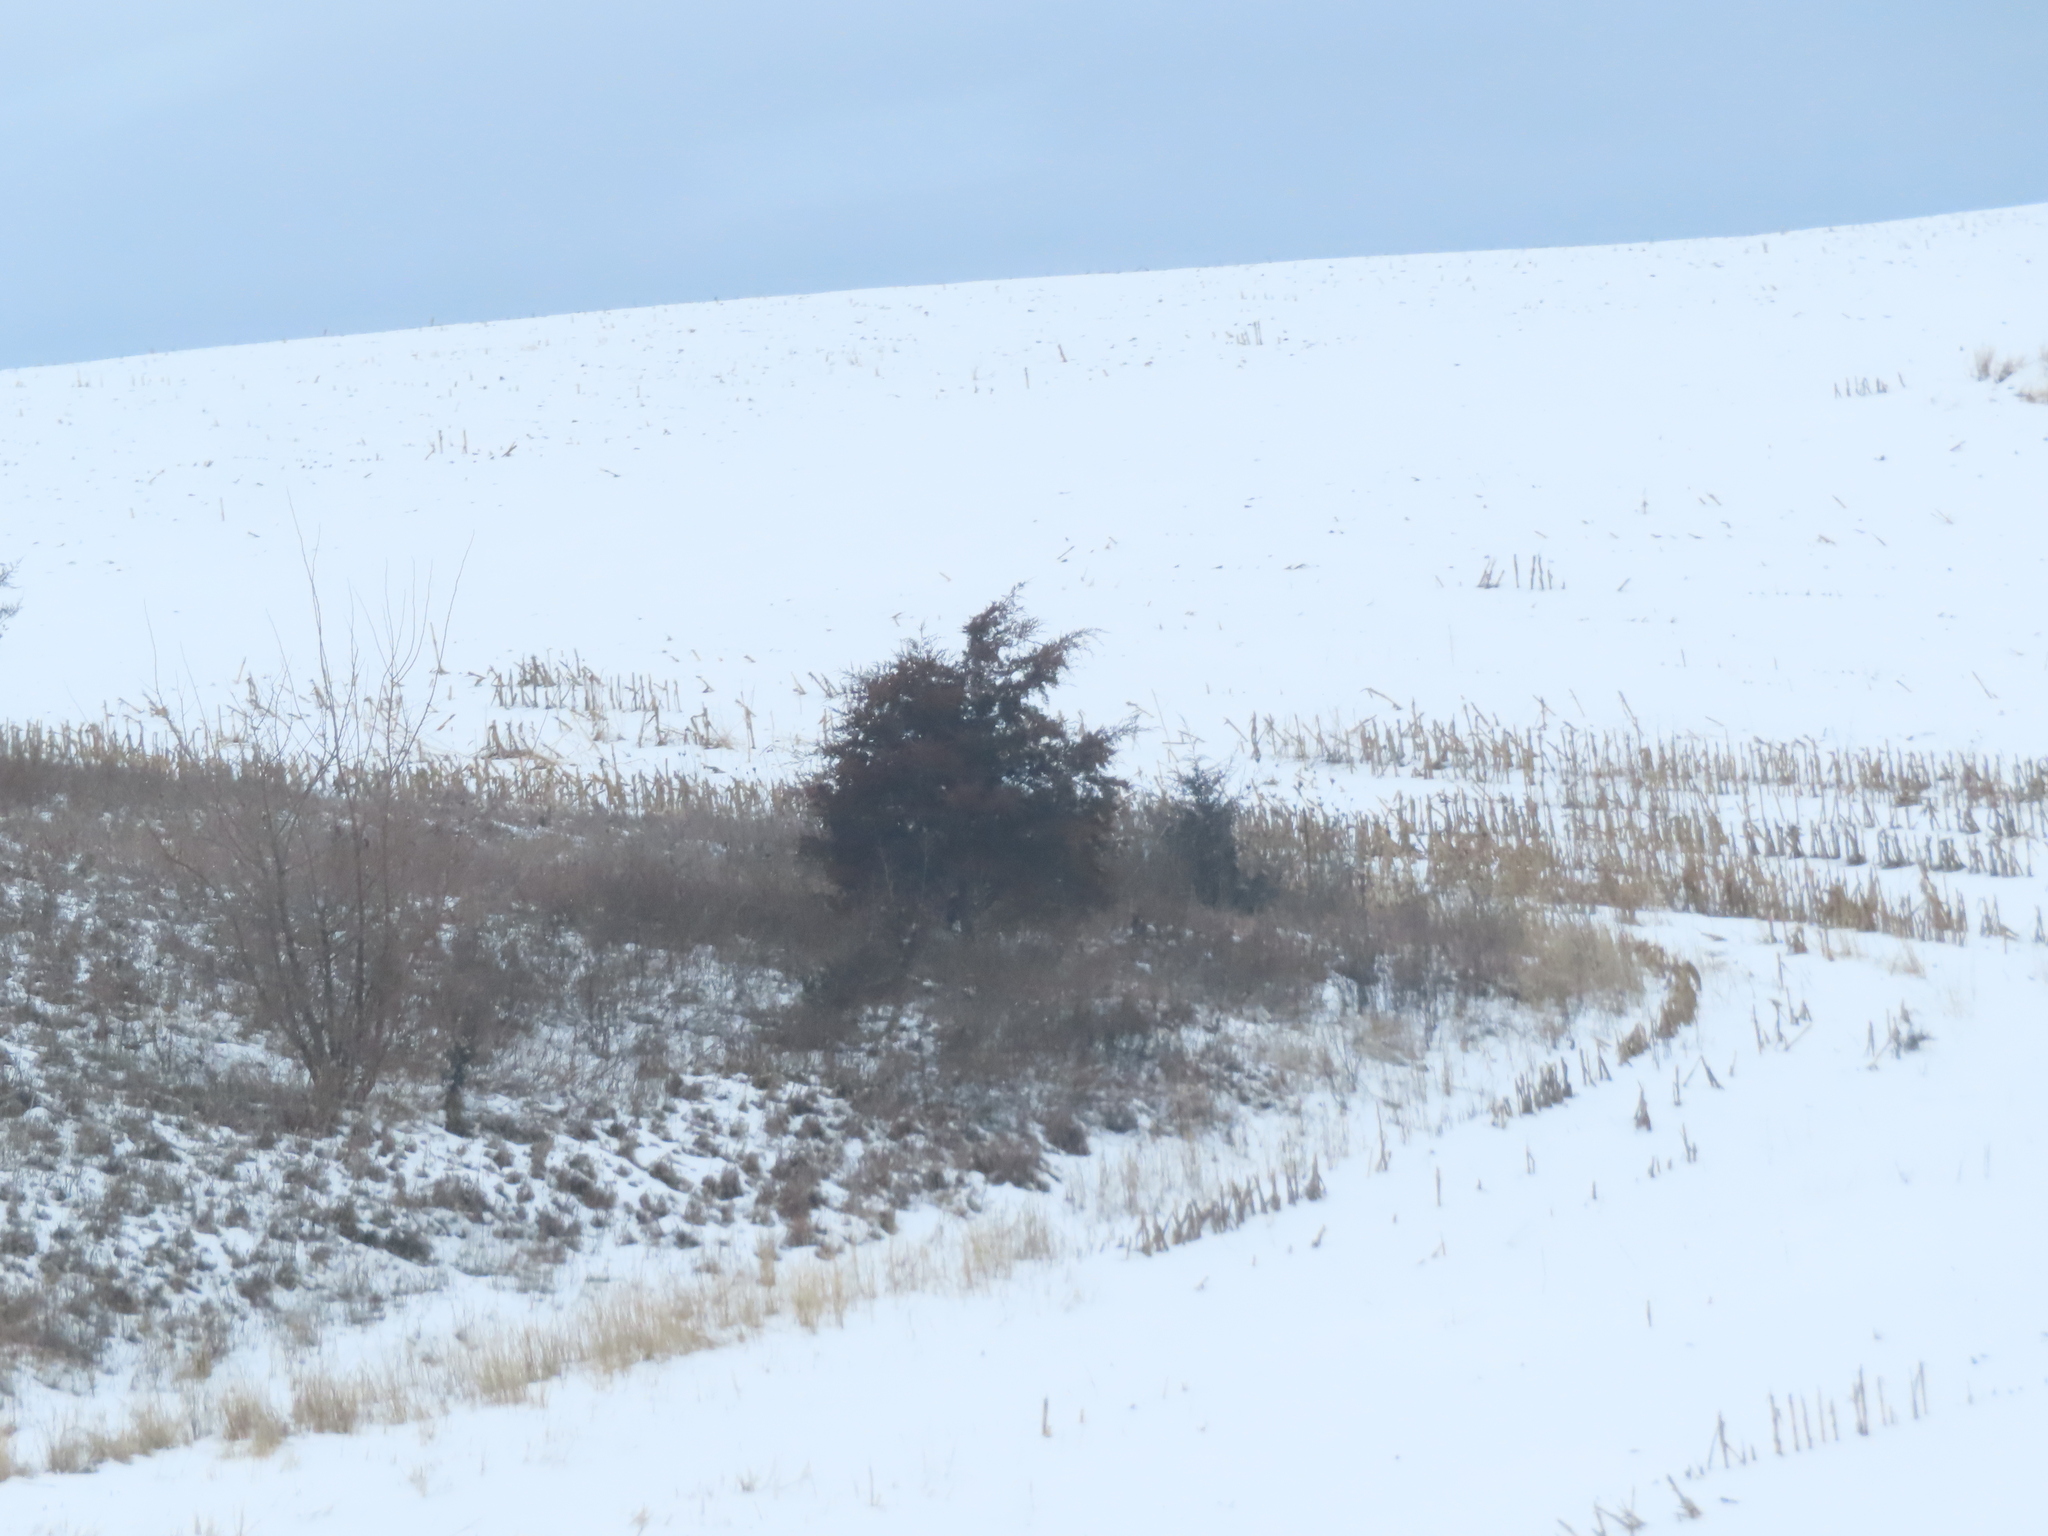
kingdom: Plantae
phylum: Tracheophyta
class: Pinopsida
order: Pinales
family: Cupressaceae
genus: Juniperus
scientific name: Juniperus virginiana
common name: Red juniper
